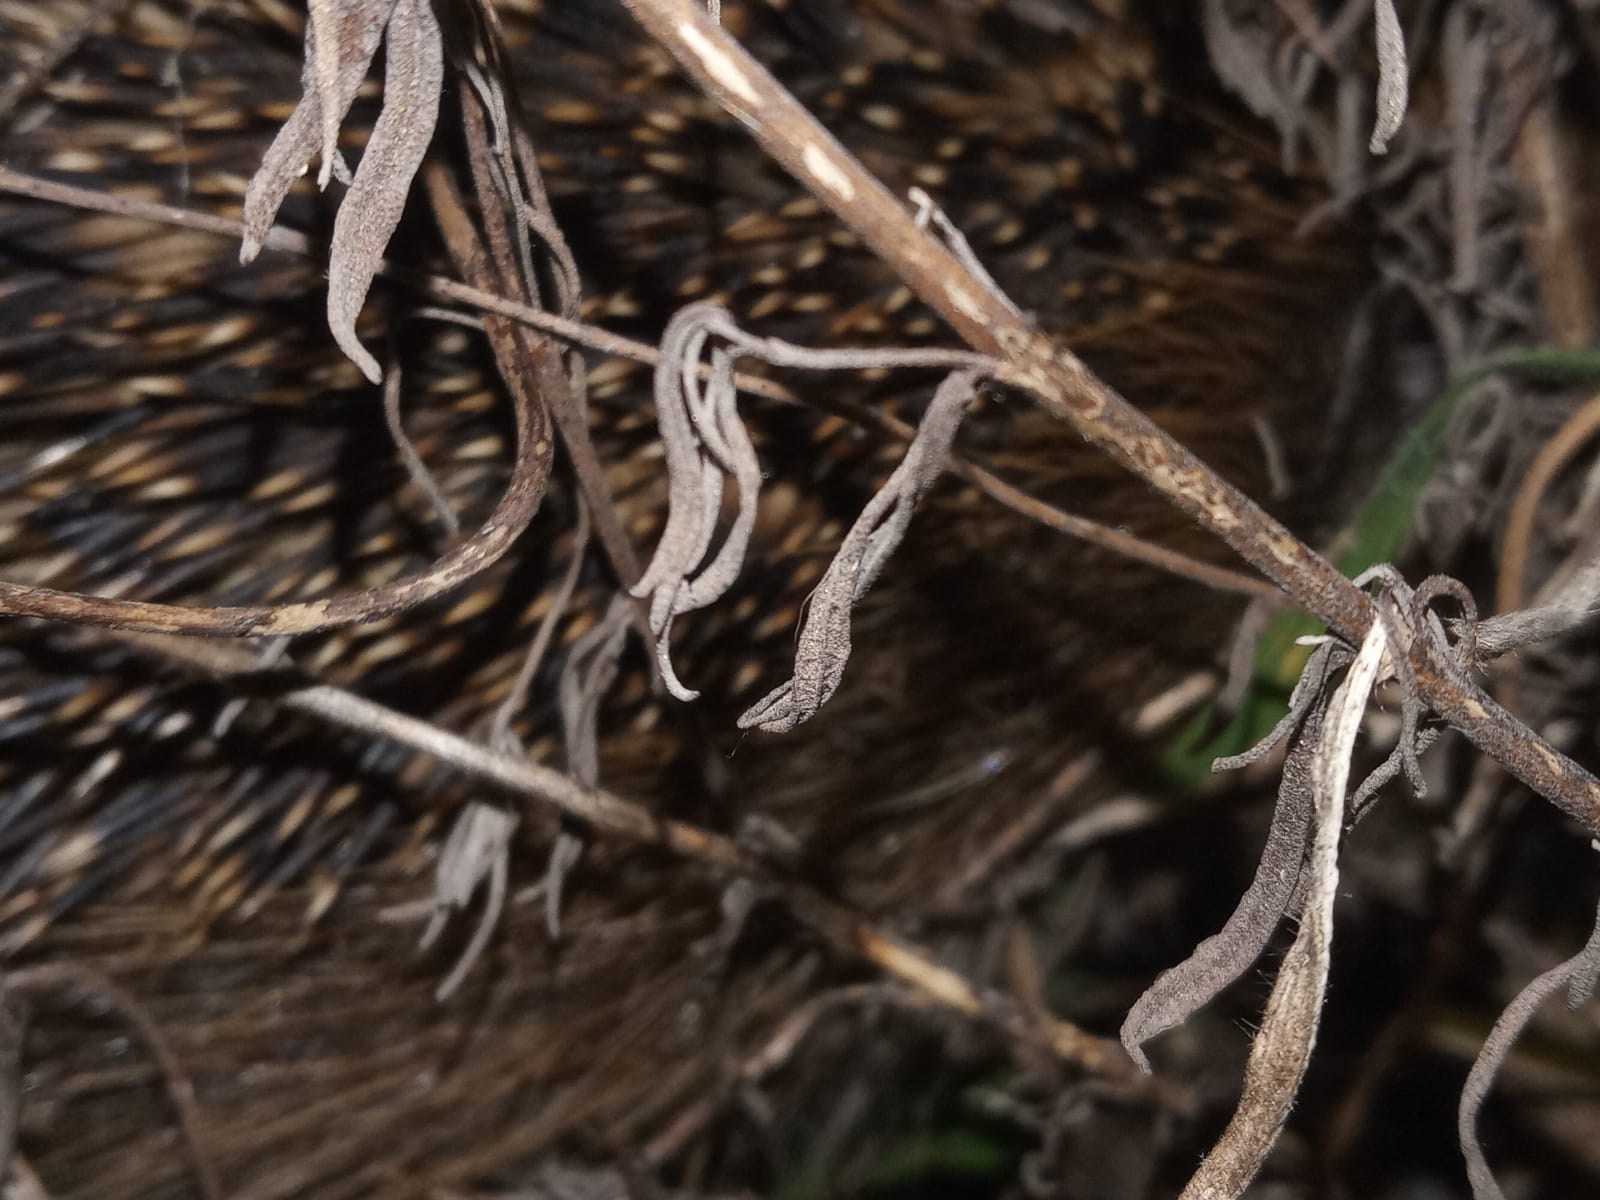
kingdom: Animalia
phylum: Chordata
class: Mammalia
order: Erinaceomorpha
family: Erinaceidae
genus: Erinaceus
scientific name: Erinaceus europaeus
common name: West european hedgehog
